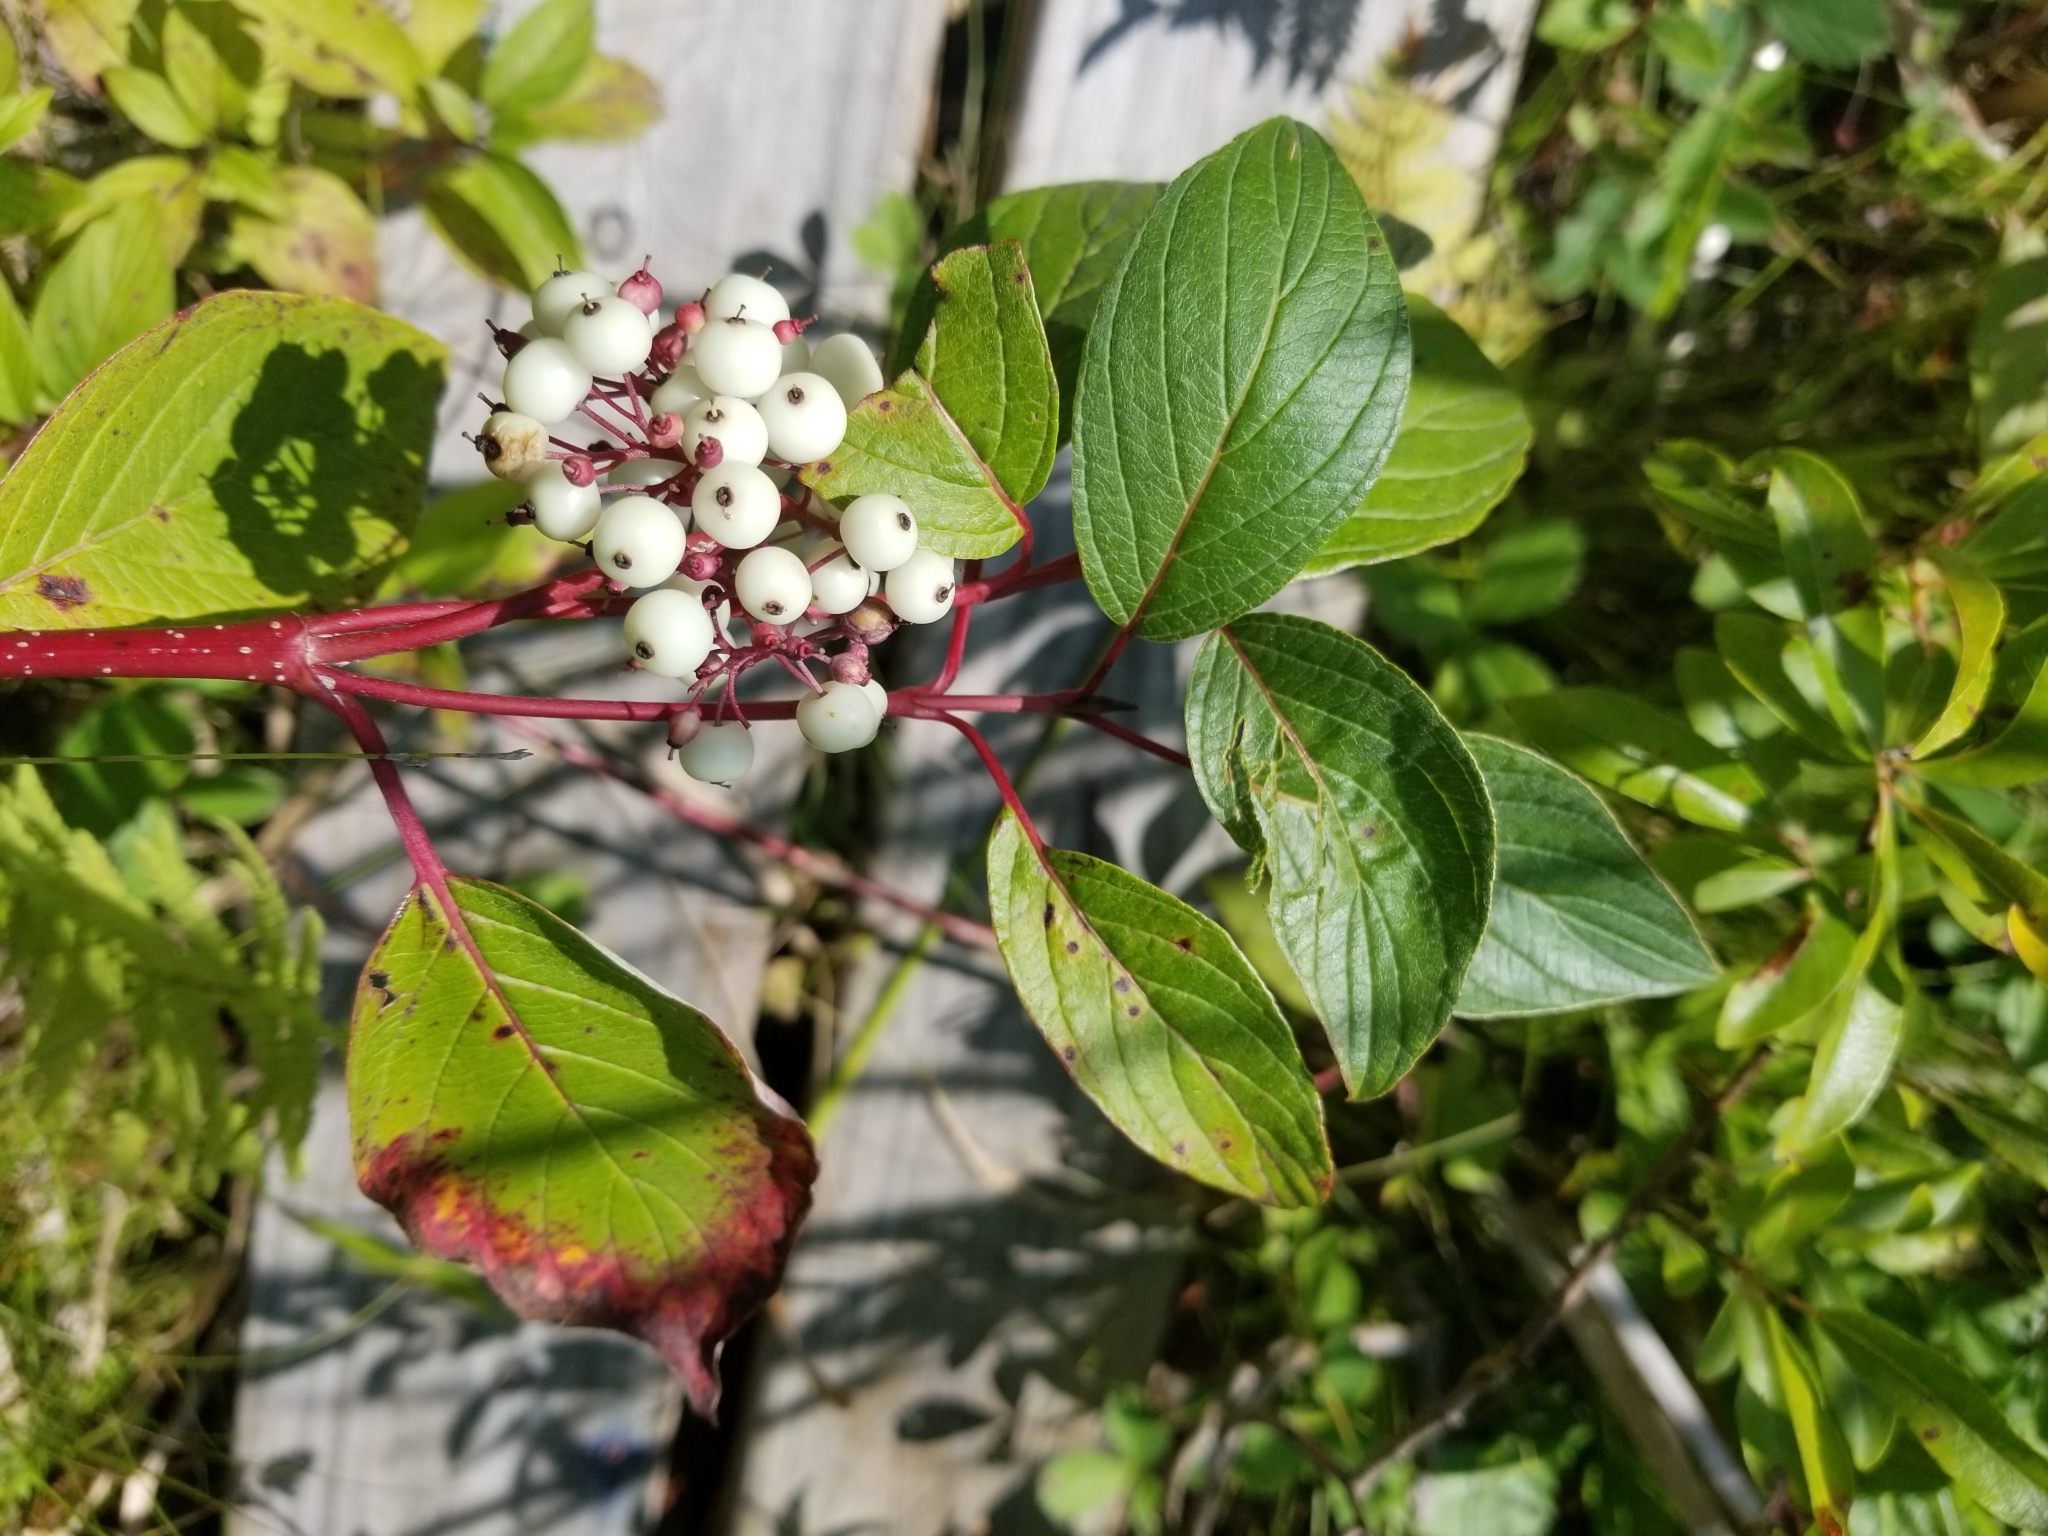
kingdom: Plantae
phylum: Tracheophyta
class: Magnoliopsida
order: Cornales
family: Cornaceae
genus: Cornus
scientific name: Cornus sericea
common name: Red-osier dogwood
